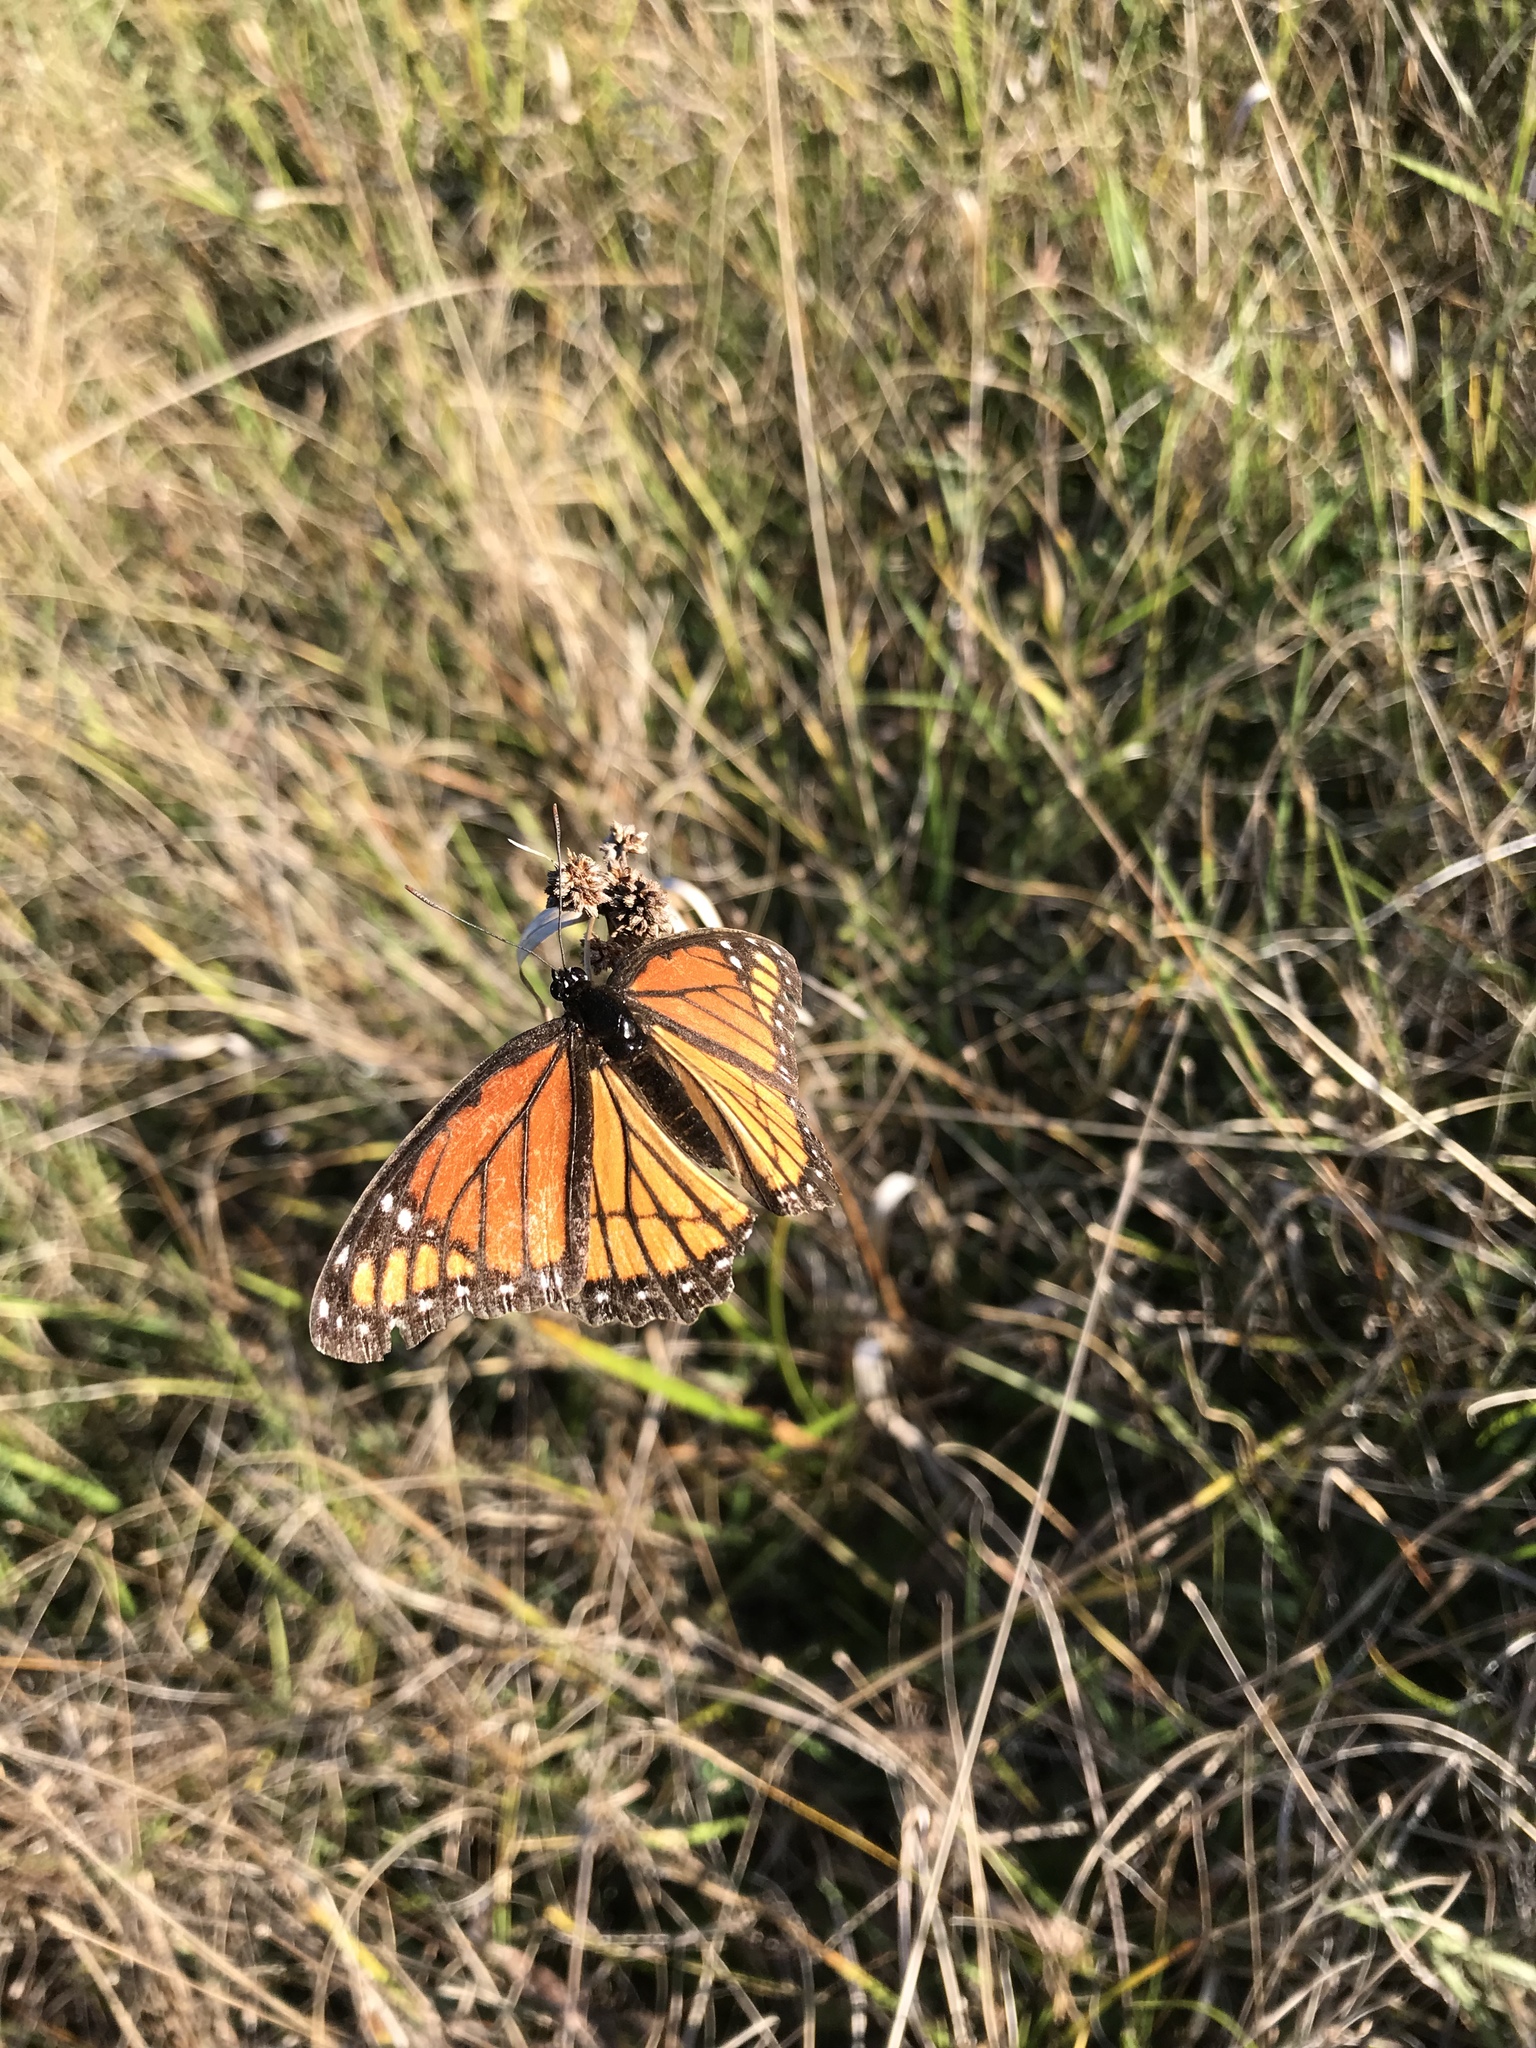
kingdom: Animalia
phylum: Arthropoda
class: Insecta
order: Lepidoptera
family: Nymphalidae
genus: Limenitis
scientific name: Limenitis archippus
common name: Viceroy
